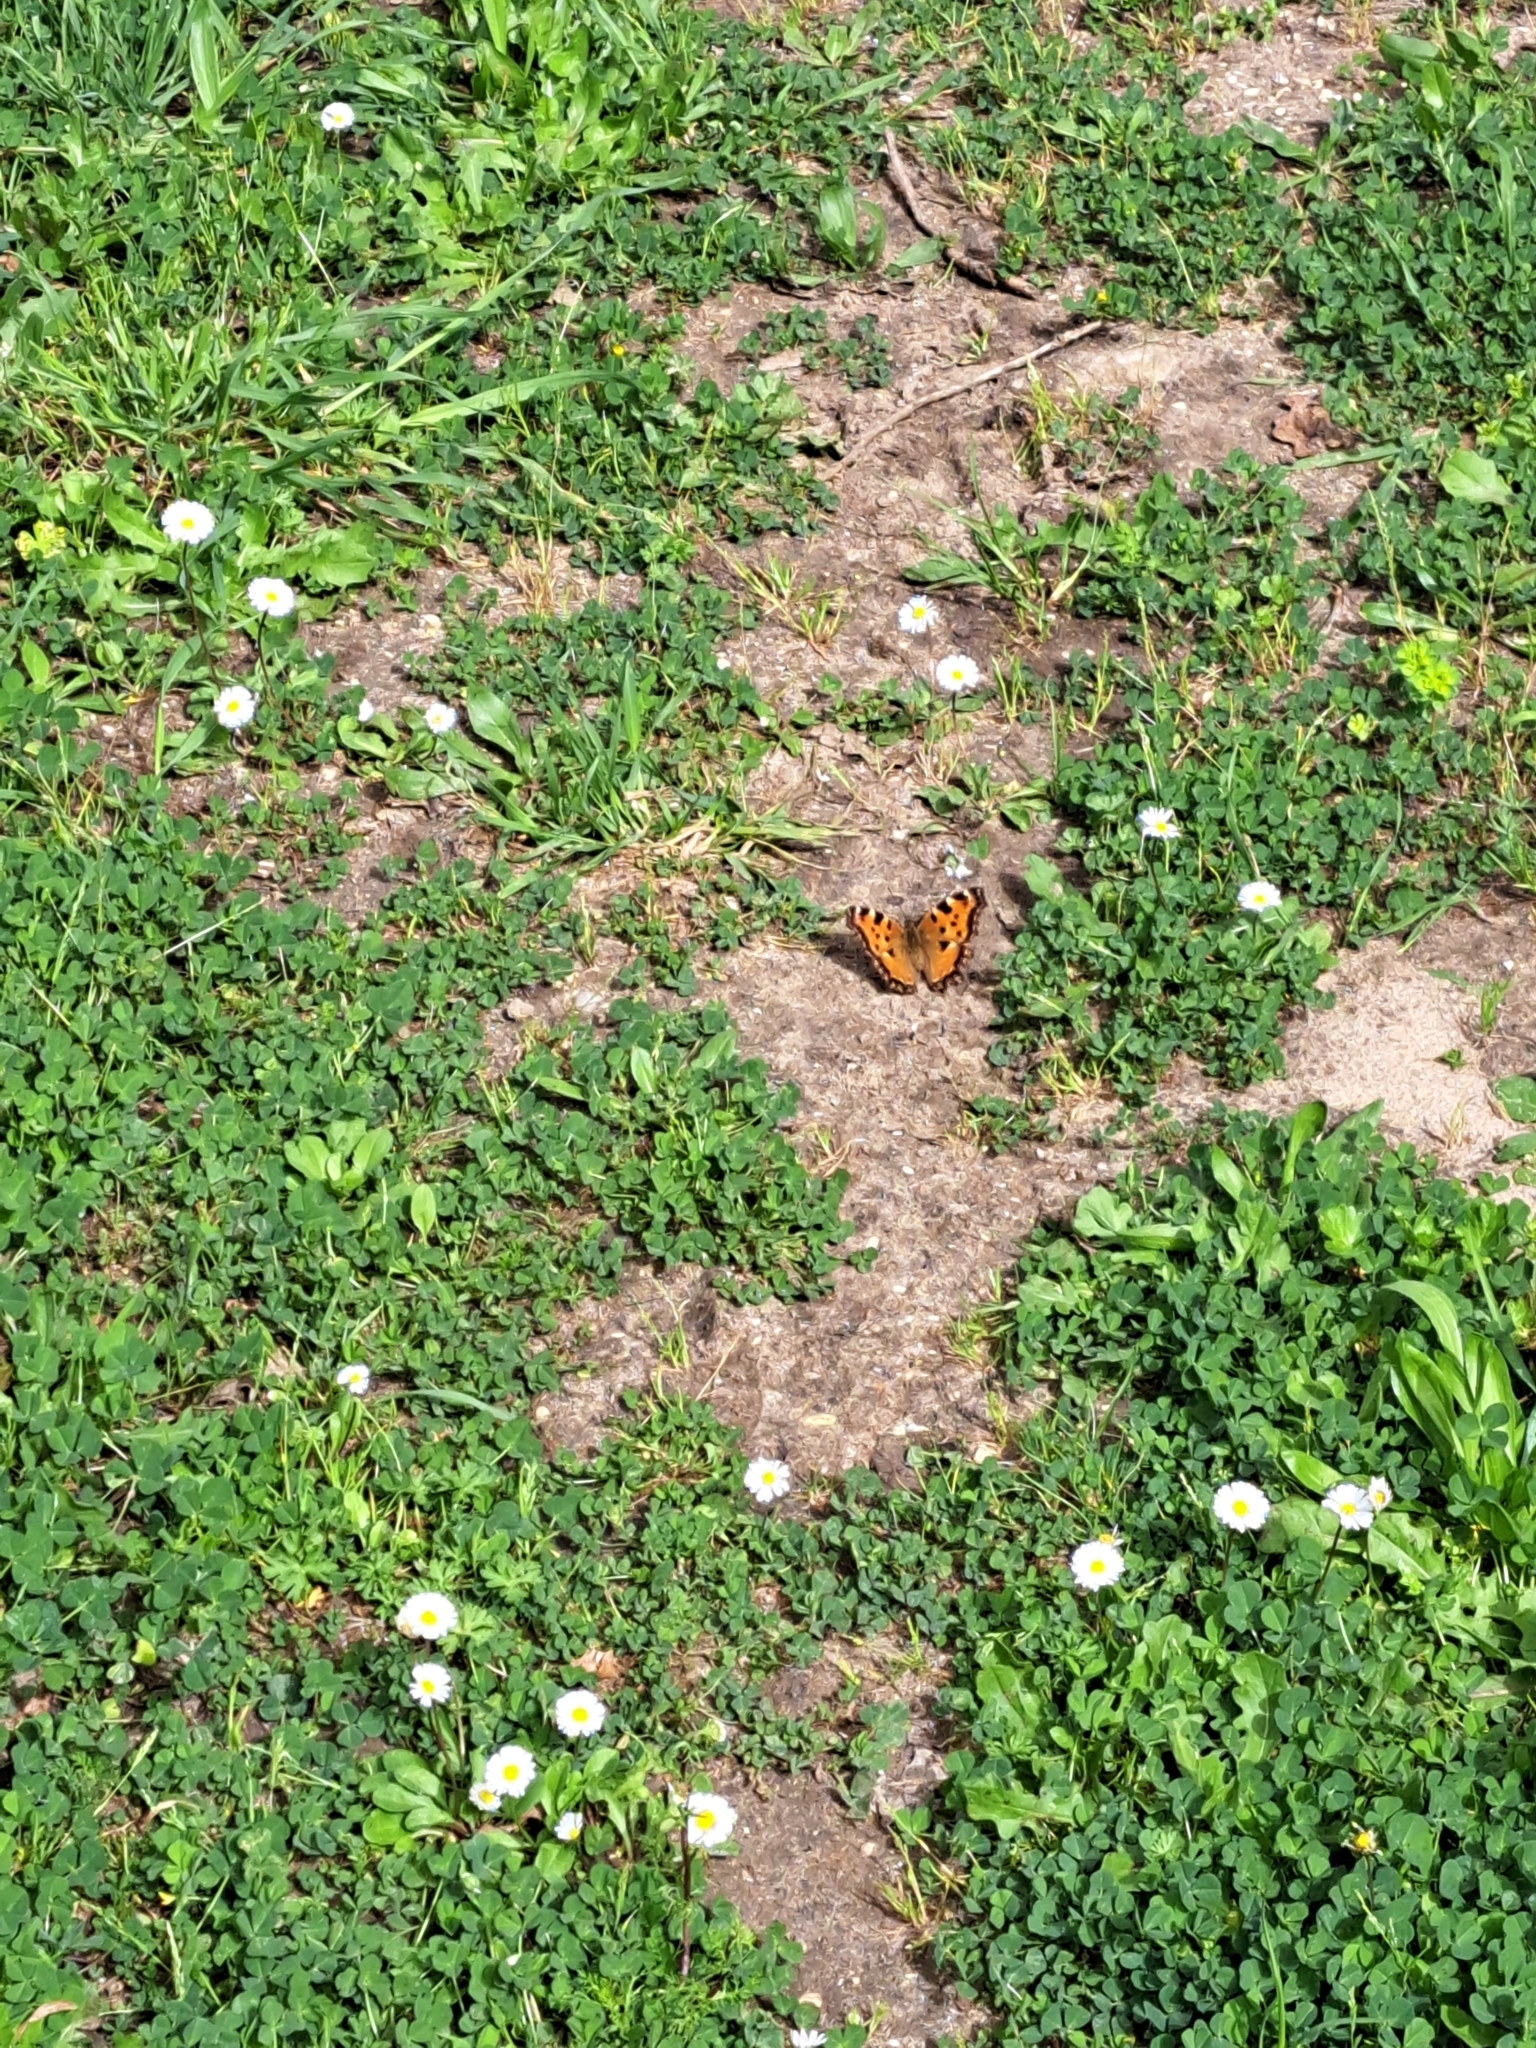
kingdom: Animalia
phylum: Arthropoda
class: Insecta
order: Lepidoptera
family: Nymphalidae
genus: Nymphalis
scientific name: Nymphalis polychloros
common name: Large tortoiseshell
